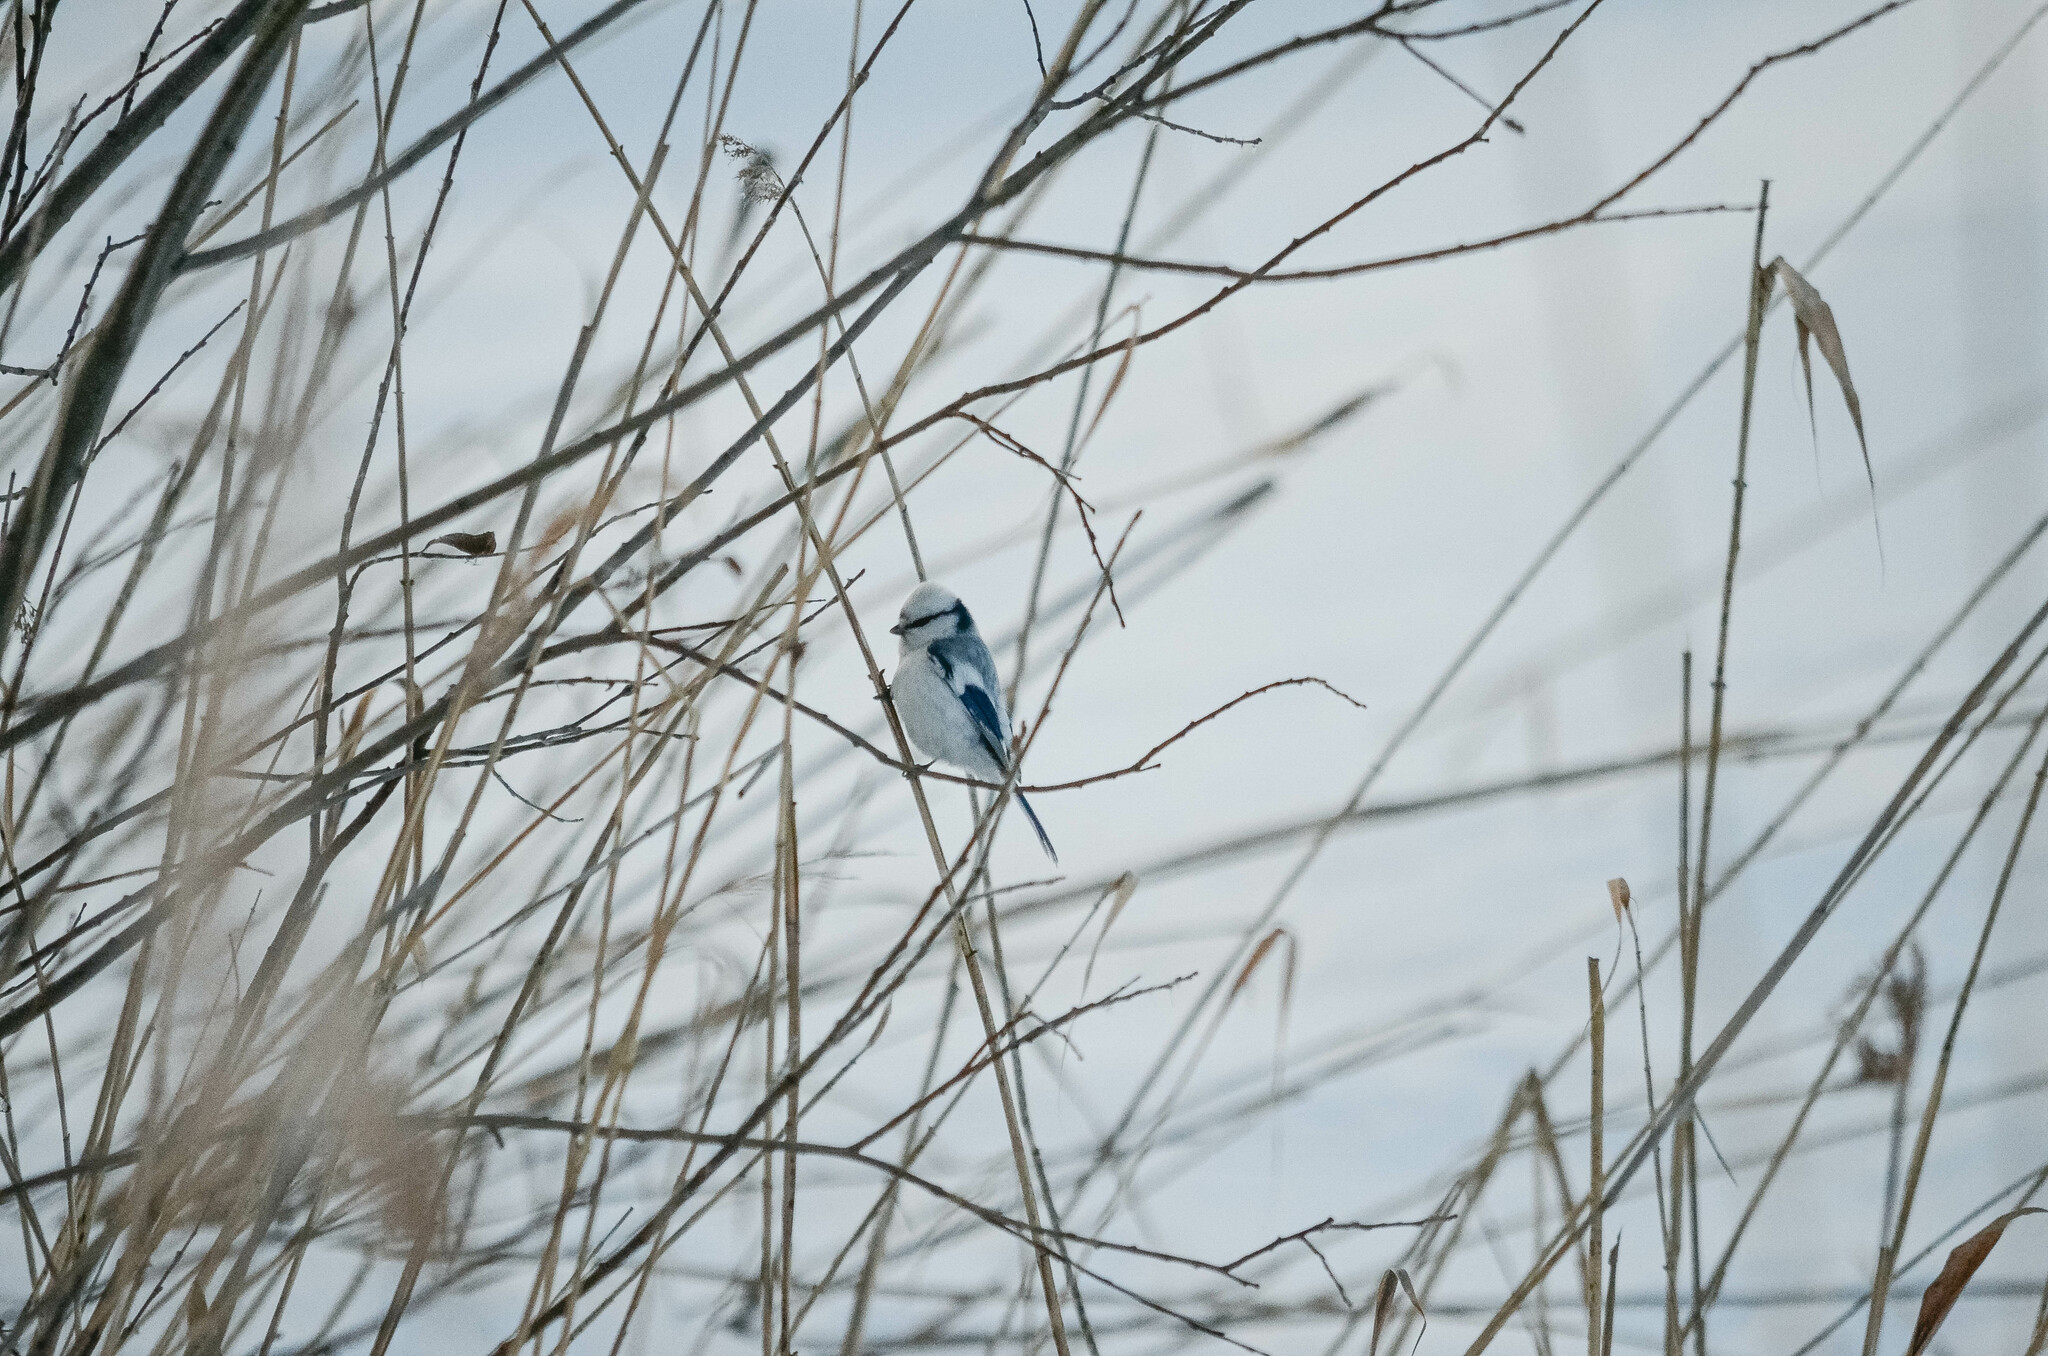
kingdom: Animalia
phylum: Chordata
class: Aves
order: Passeriformes
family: Paridae
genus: Cyanistes
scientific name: Cyanistes cyanus
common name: Azure tit
